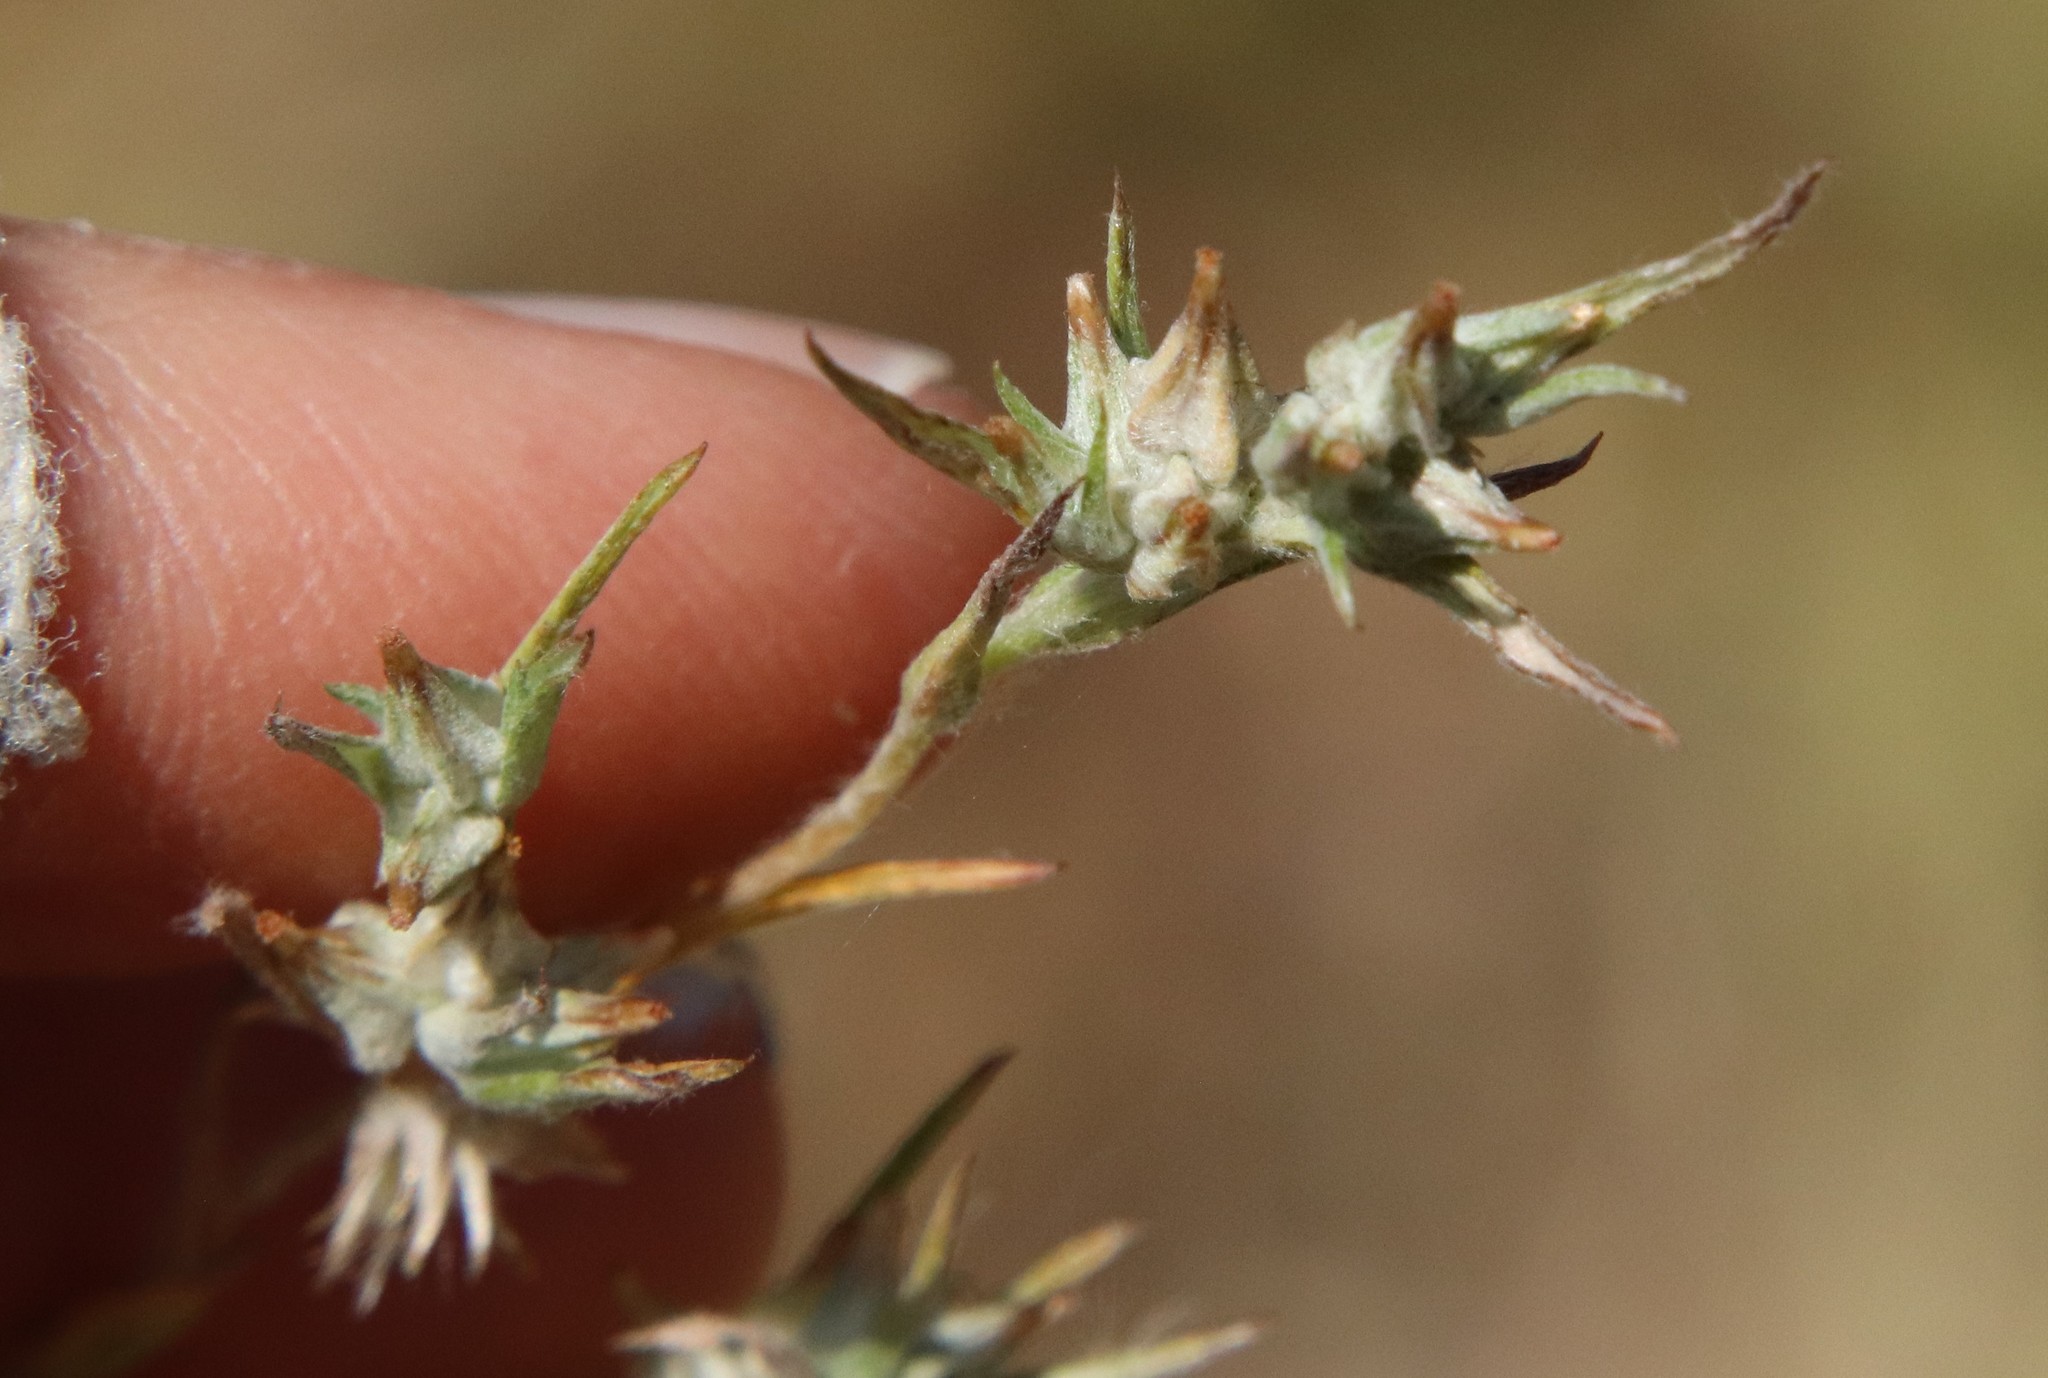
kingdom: Plantae
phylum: Tracheophyta
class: Magnoliopsida
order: Asterales
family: Asteraceae
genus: Logfia
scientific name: Logfia gallica
